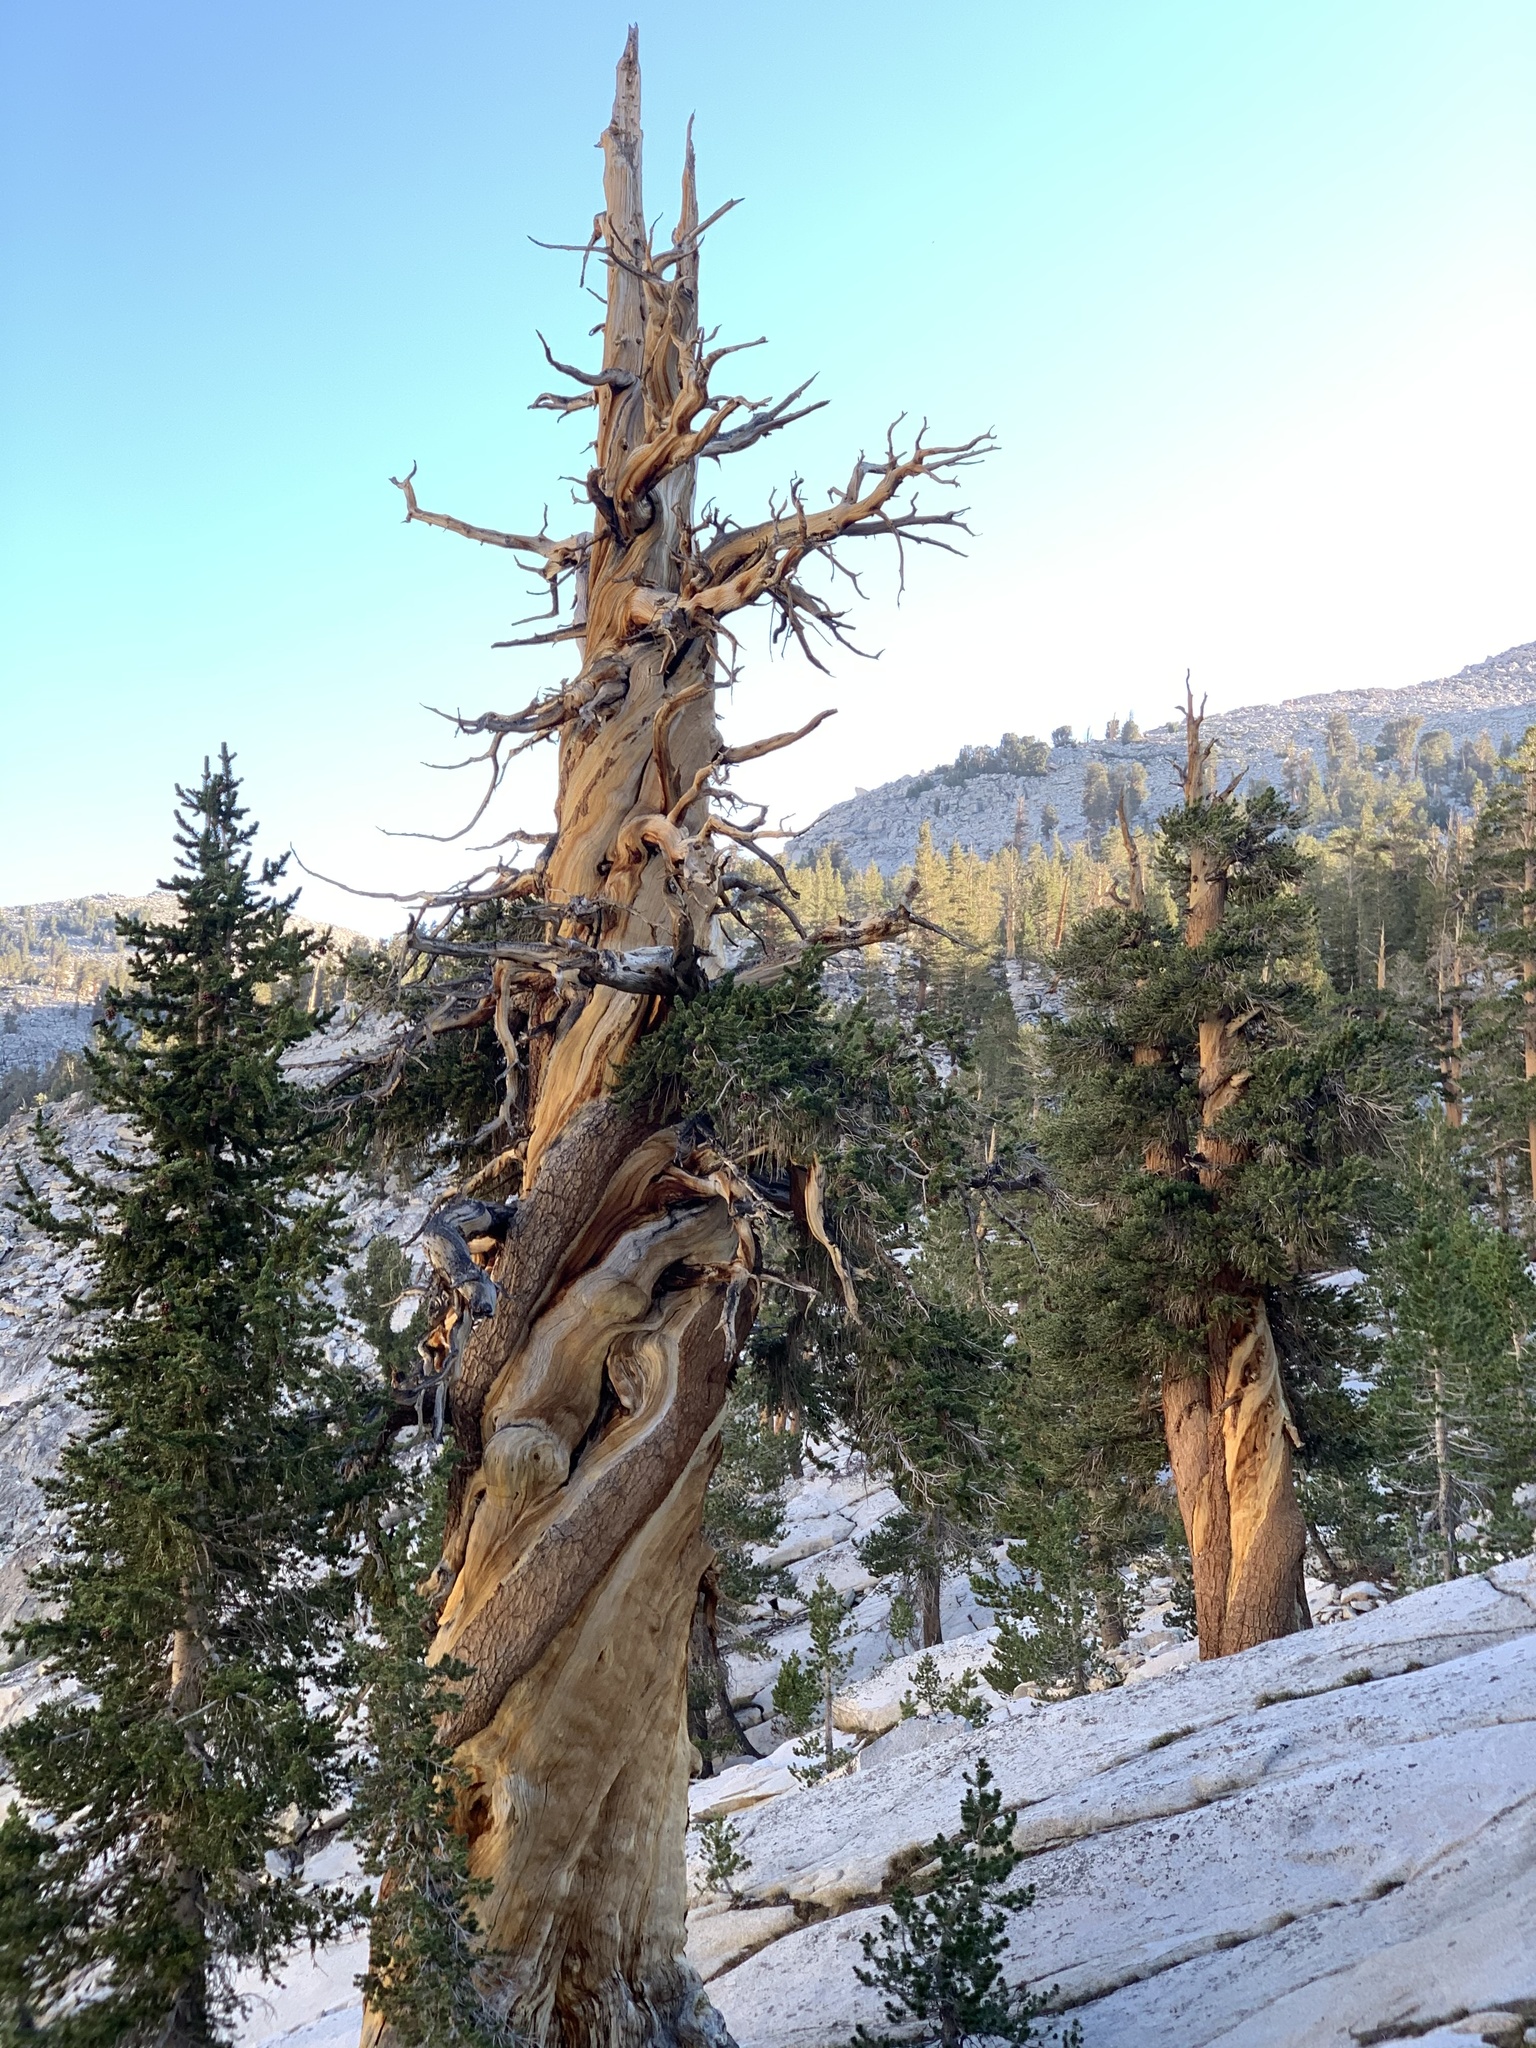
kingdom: Plantae
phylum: Tracheophyta
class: Pinopsida
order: Pinales
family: Pinaceae
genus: Pinus
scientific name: Pinus balfouriana
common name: Foxtail pine
